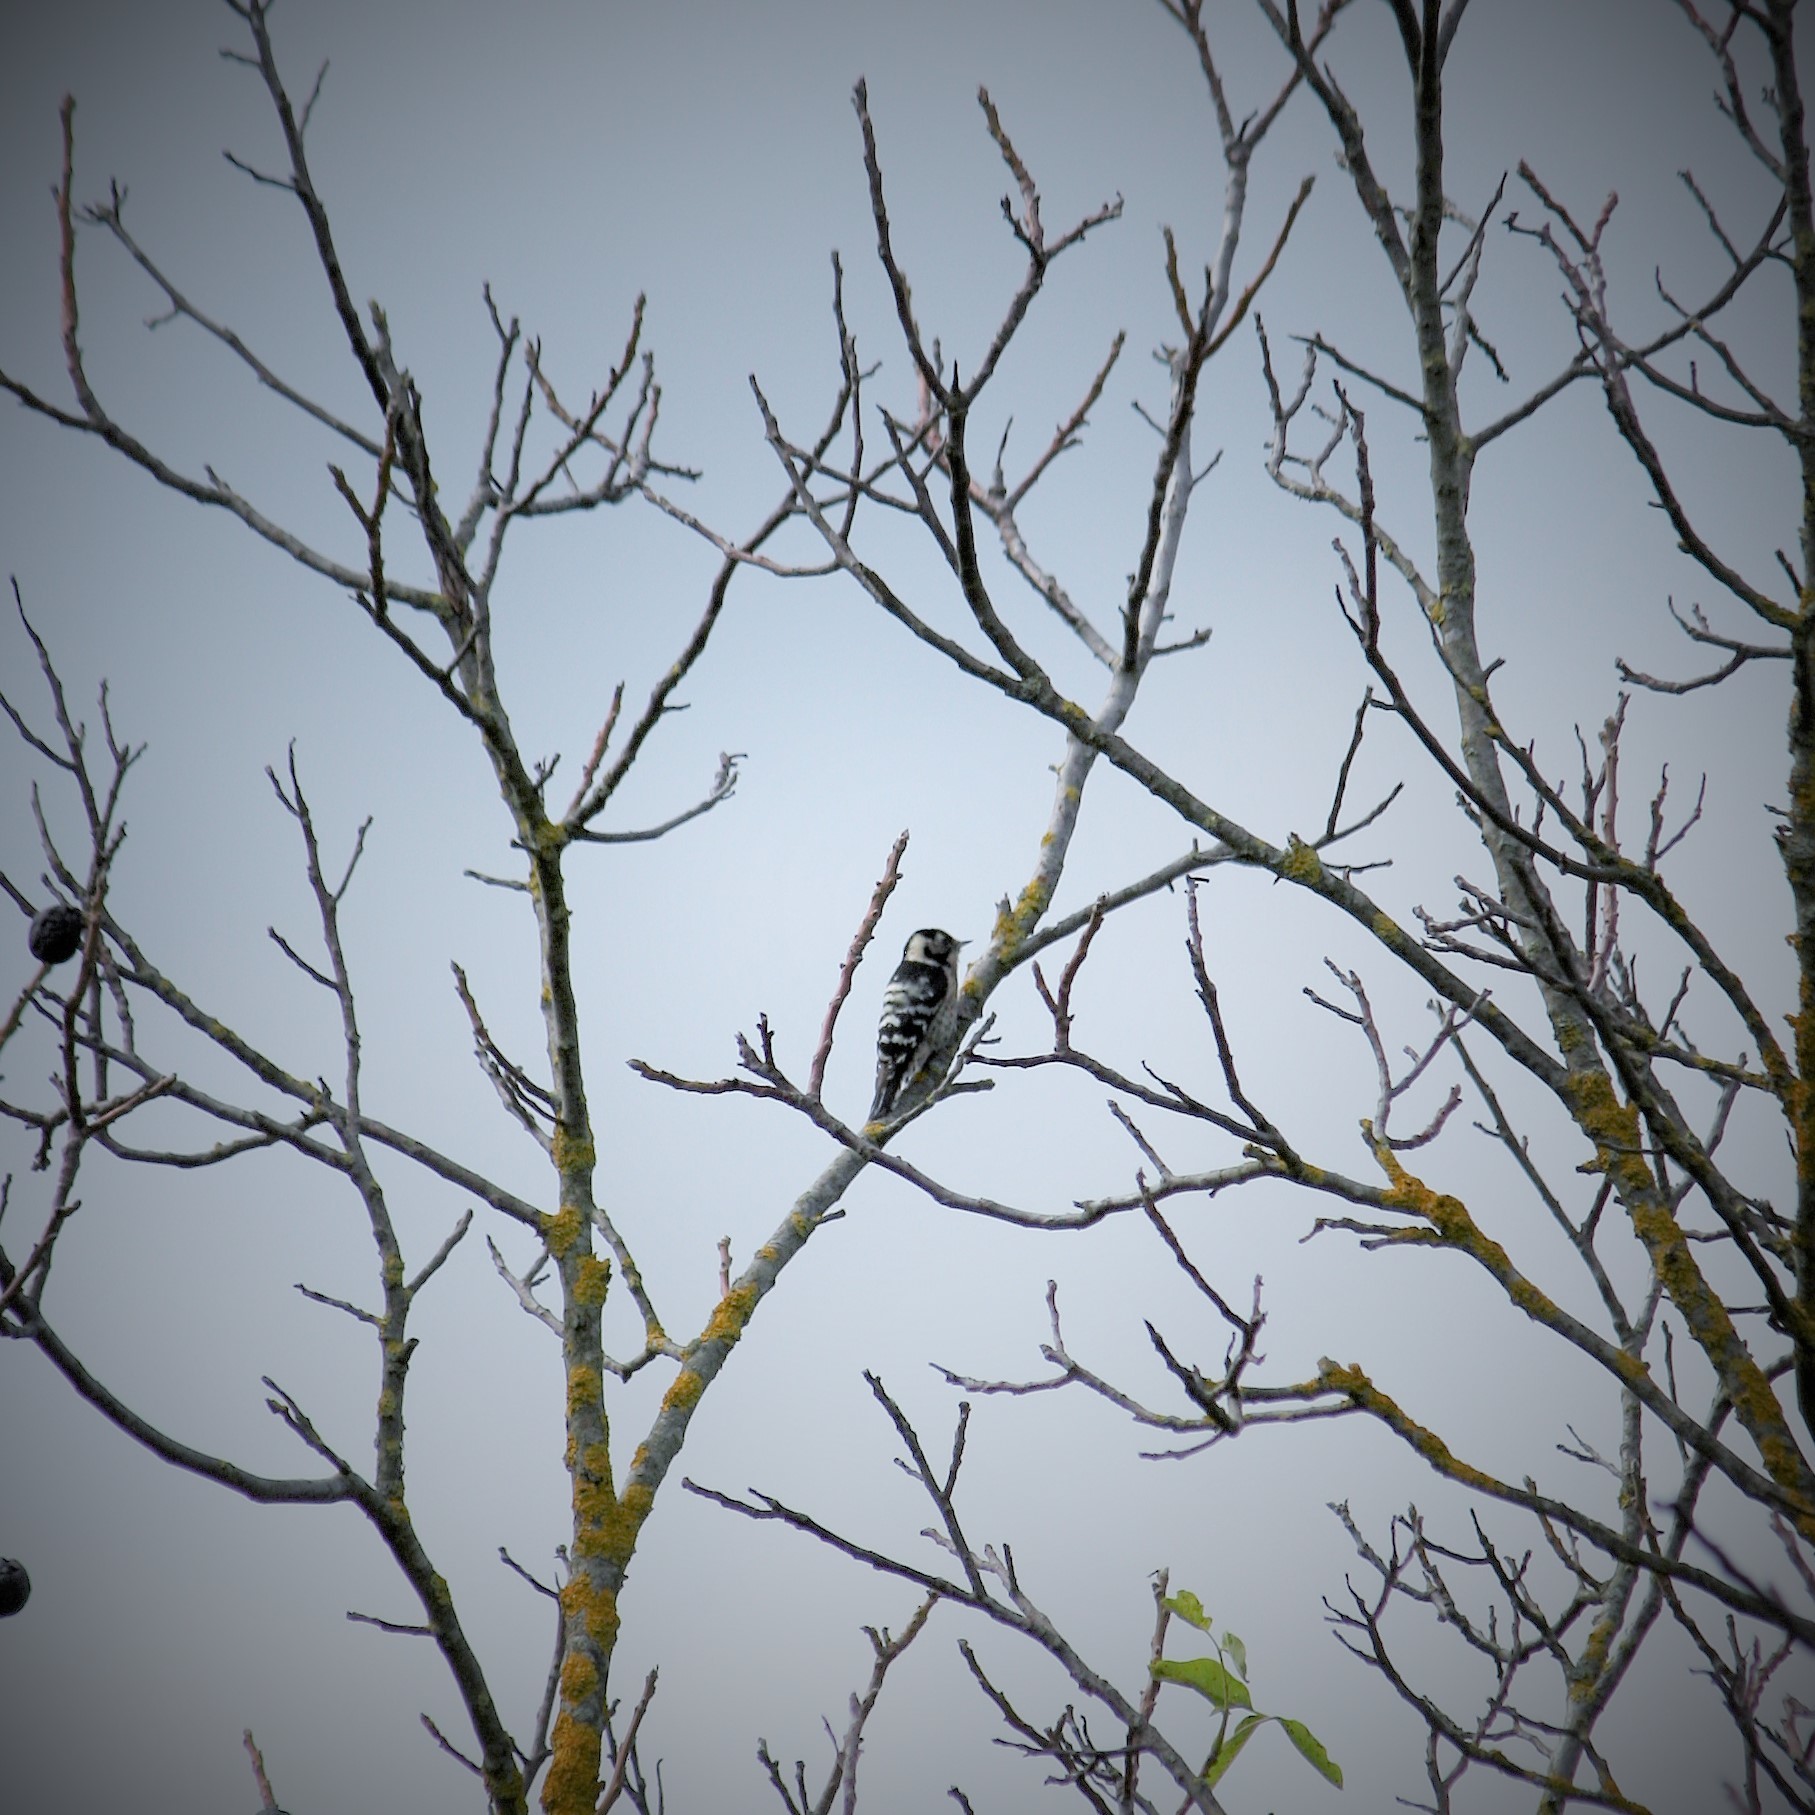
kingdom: Animalia
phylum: Chordata
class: Aves
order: Piciformes
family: Picidae
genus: Dryobates
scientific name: Dryobates minor
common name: Lesser spotted woodpecker
